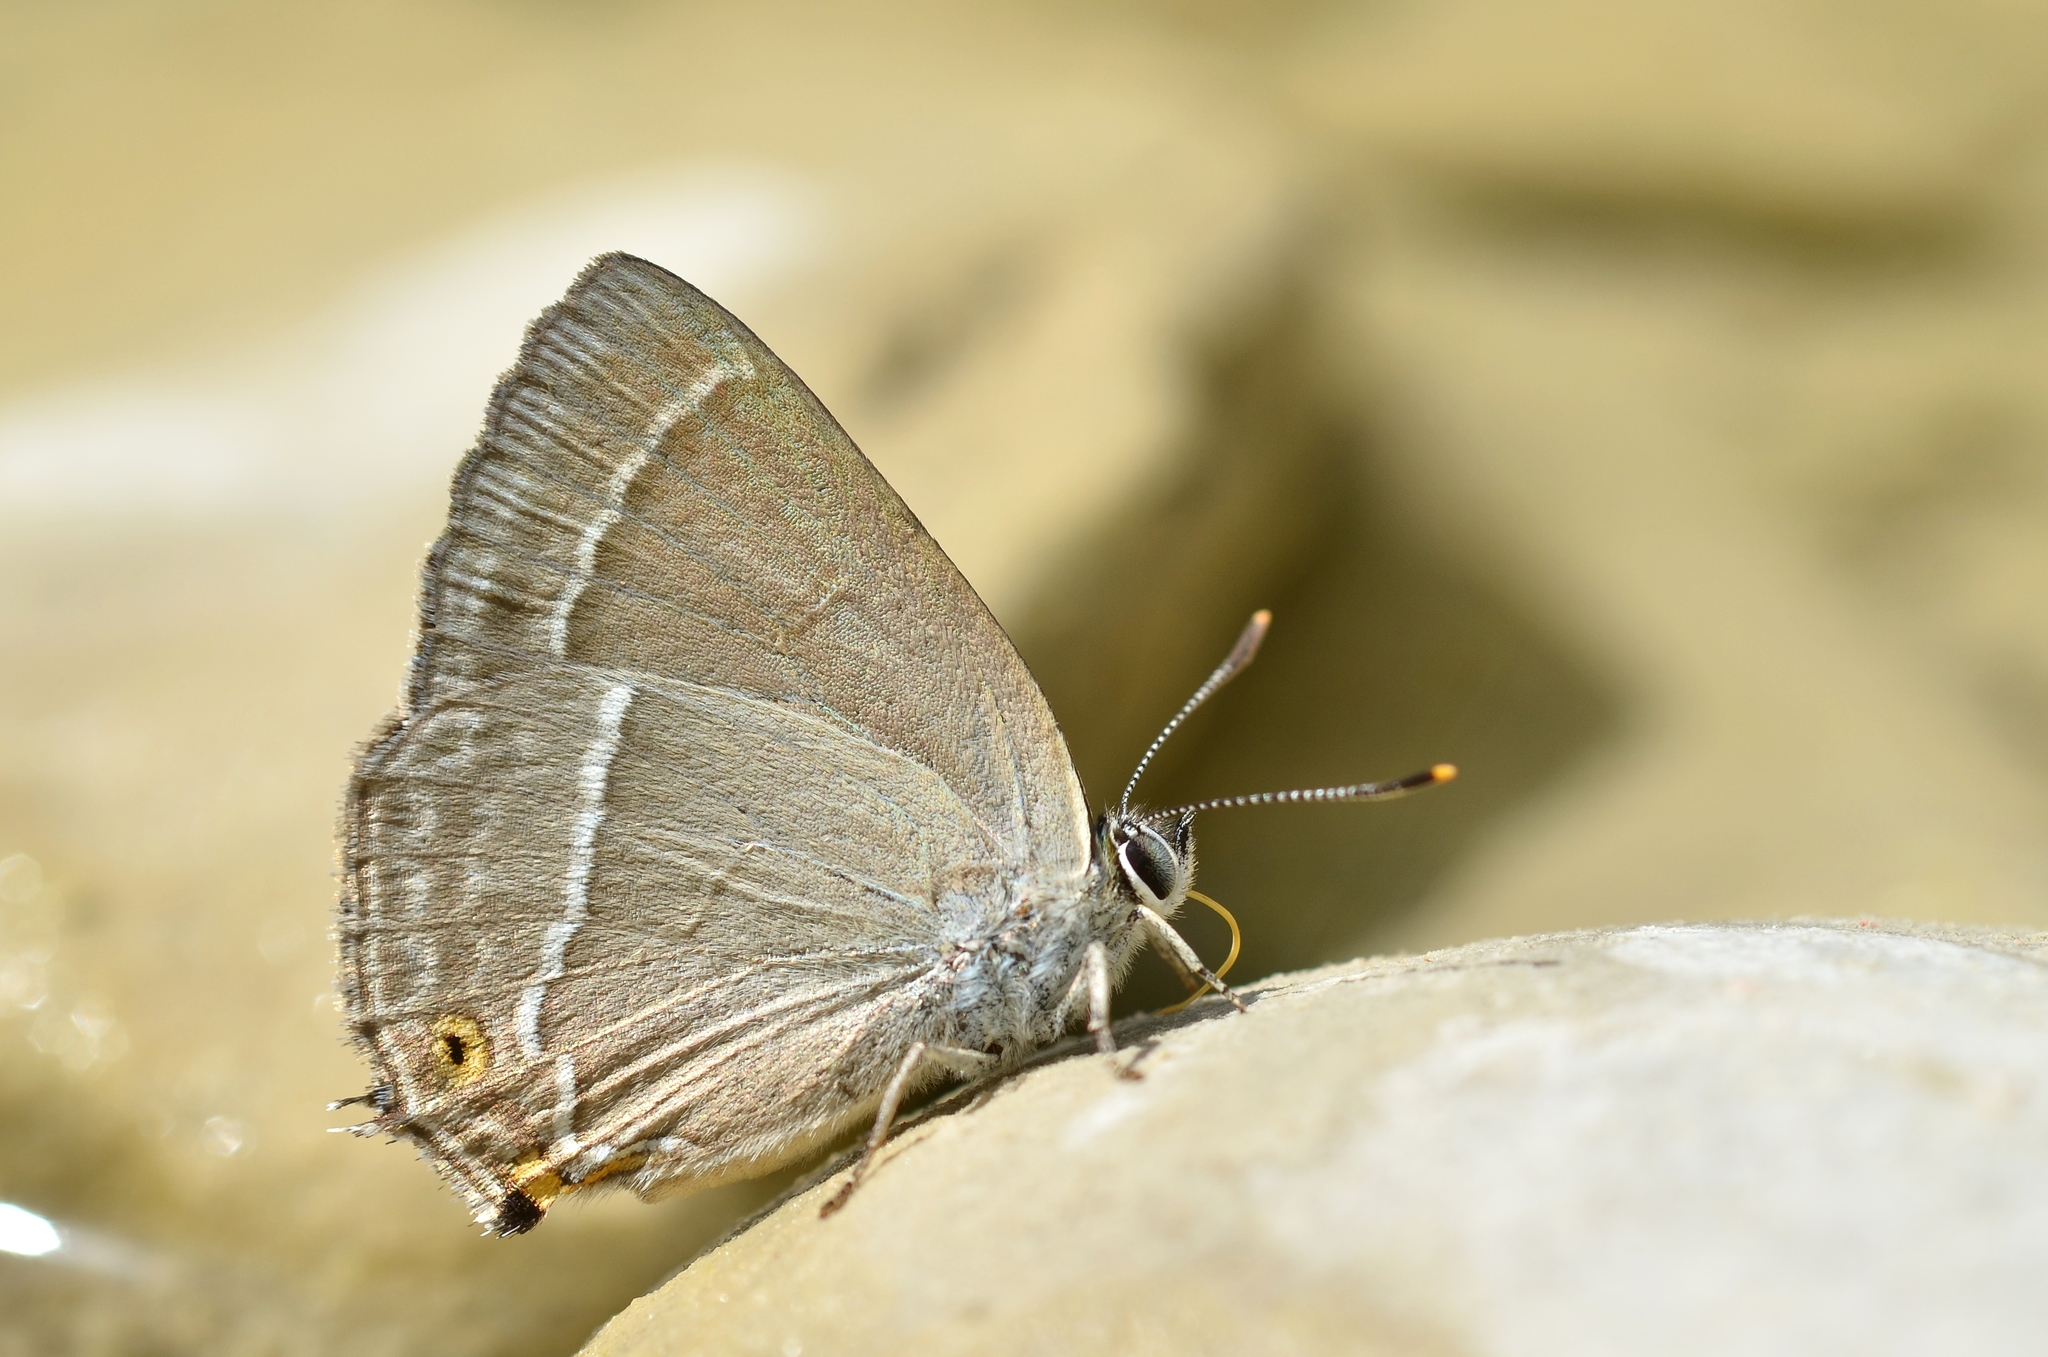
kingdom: Animalia
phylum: Arthropoda
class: Insecta
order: Lepidoptera
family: Lycaenidae
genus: Quercusia
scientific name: Quercusia quercus
